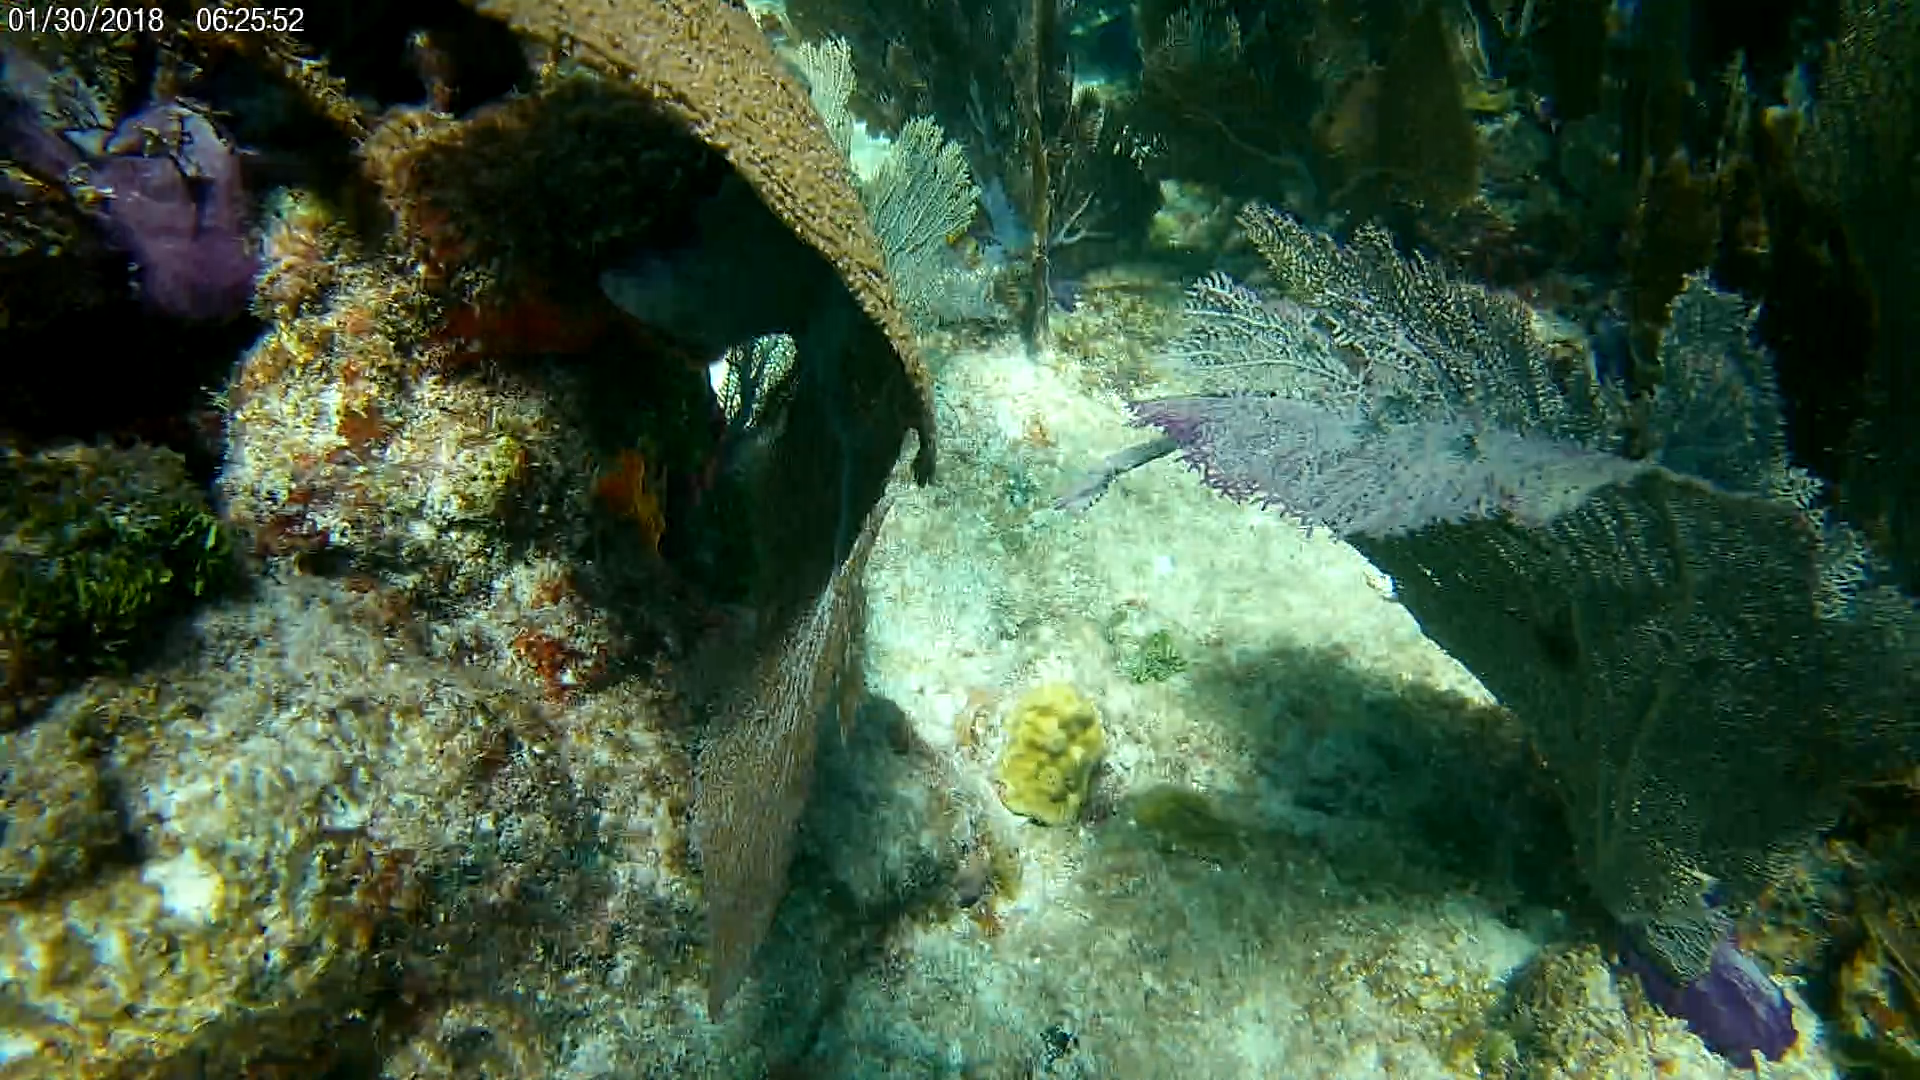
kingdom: Animalia
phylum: Cnidaria
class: Anthozoa
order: Malacalcyonacea
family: Gorgoniidae
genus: Gorgonia
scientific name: Gorgonia ventalina
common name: Common sea fan
